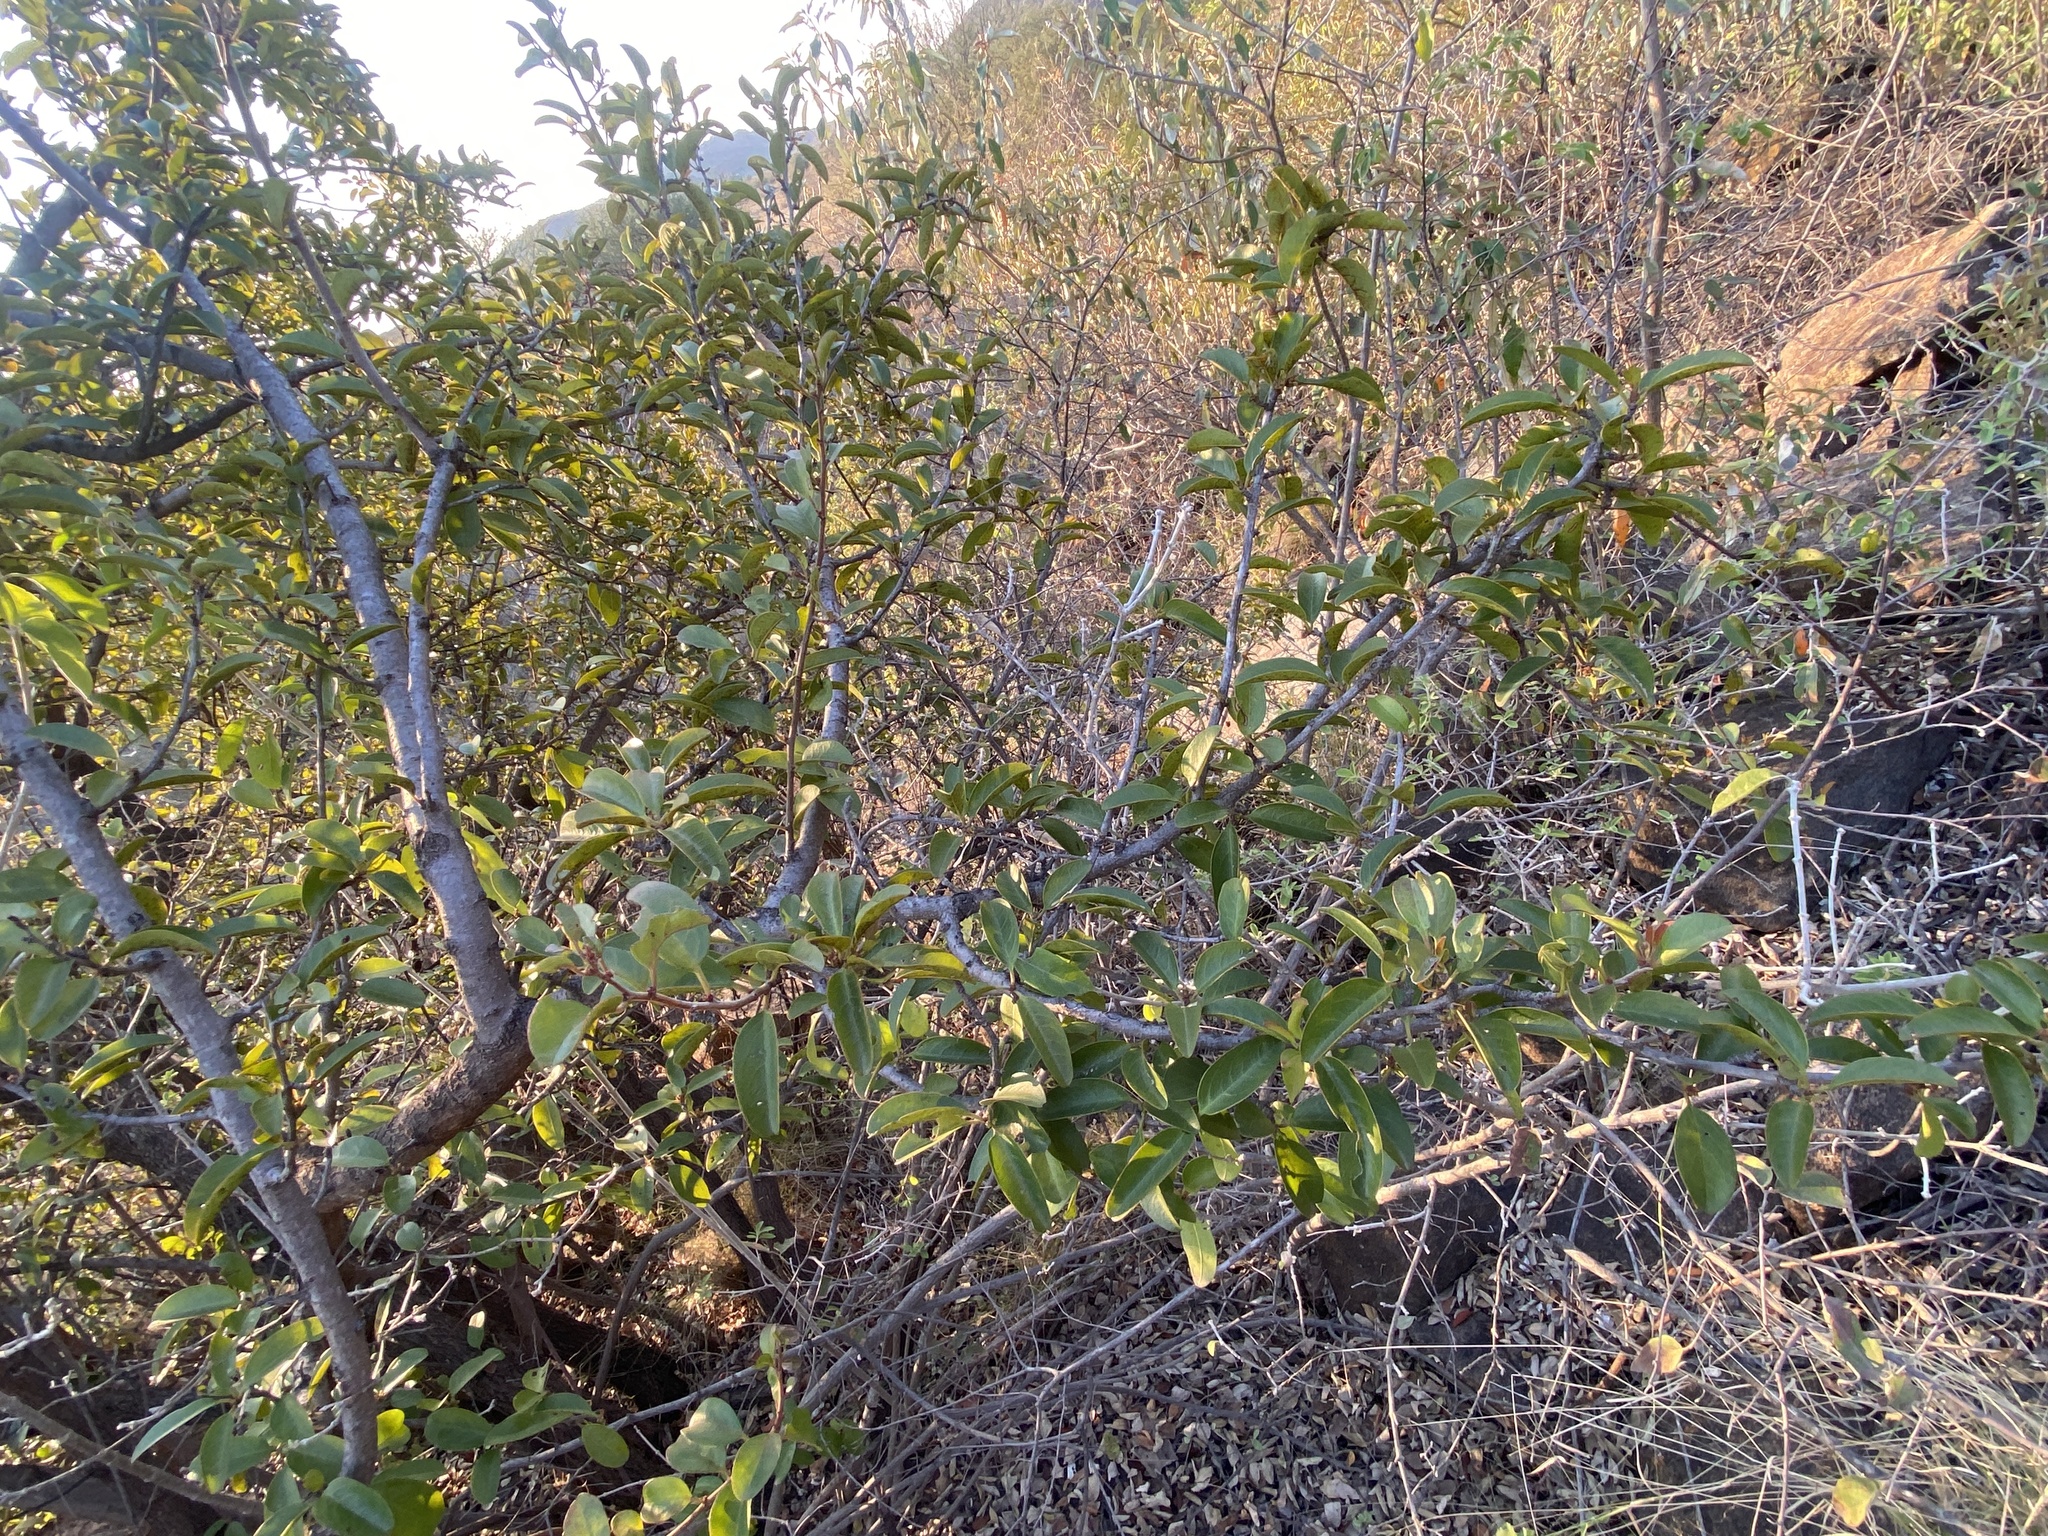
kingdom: Plantae
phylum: Tracheophyta
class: Magnoliopsida
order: Santalales
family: Ximeniaceae
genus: Ximenia
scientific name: Ximenia caffra
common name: Large sourplum
